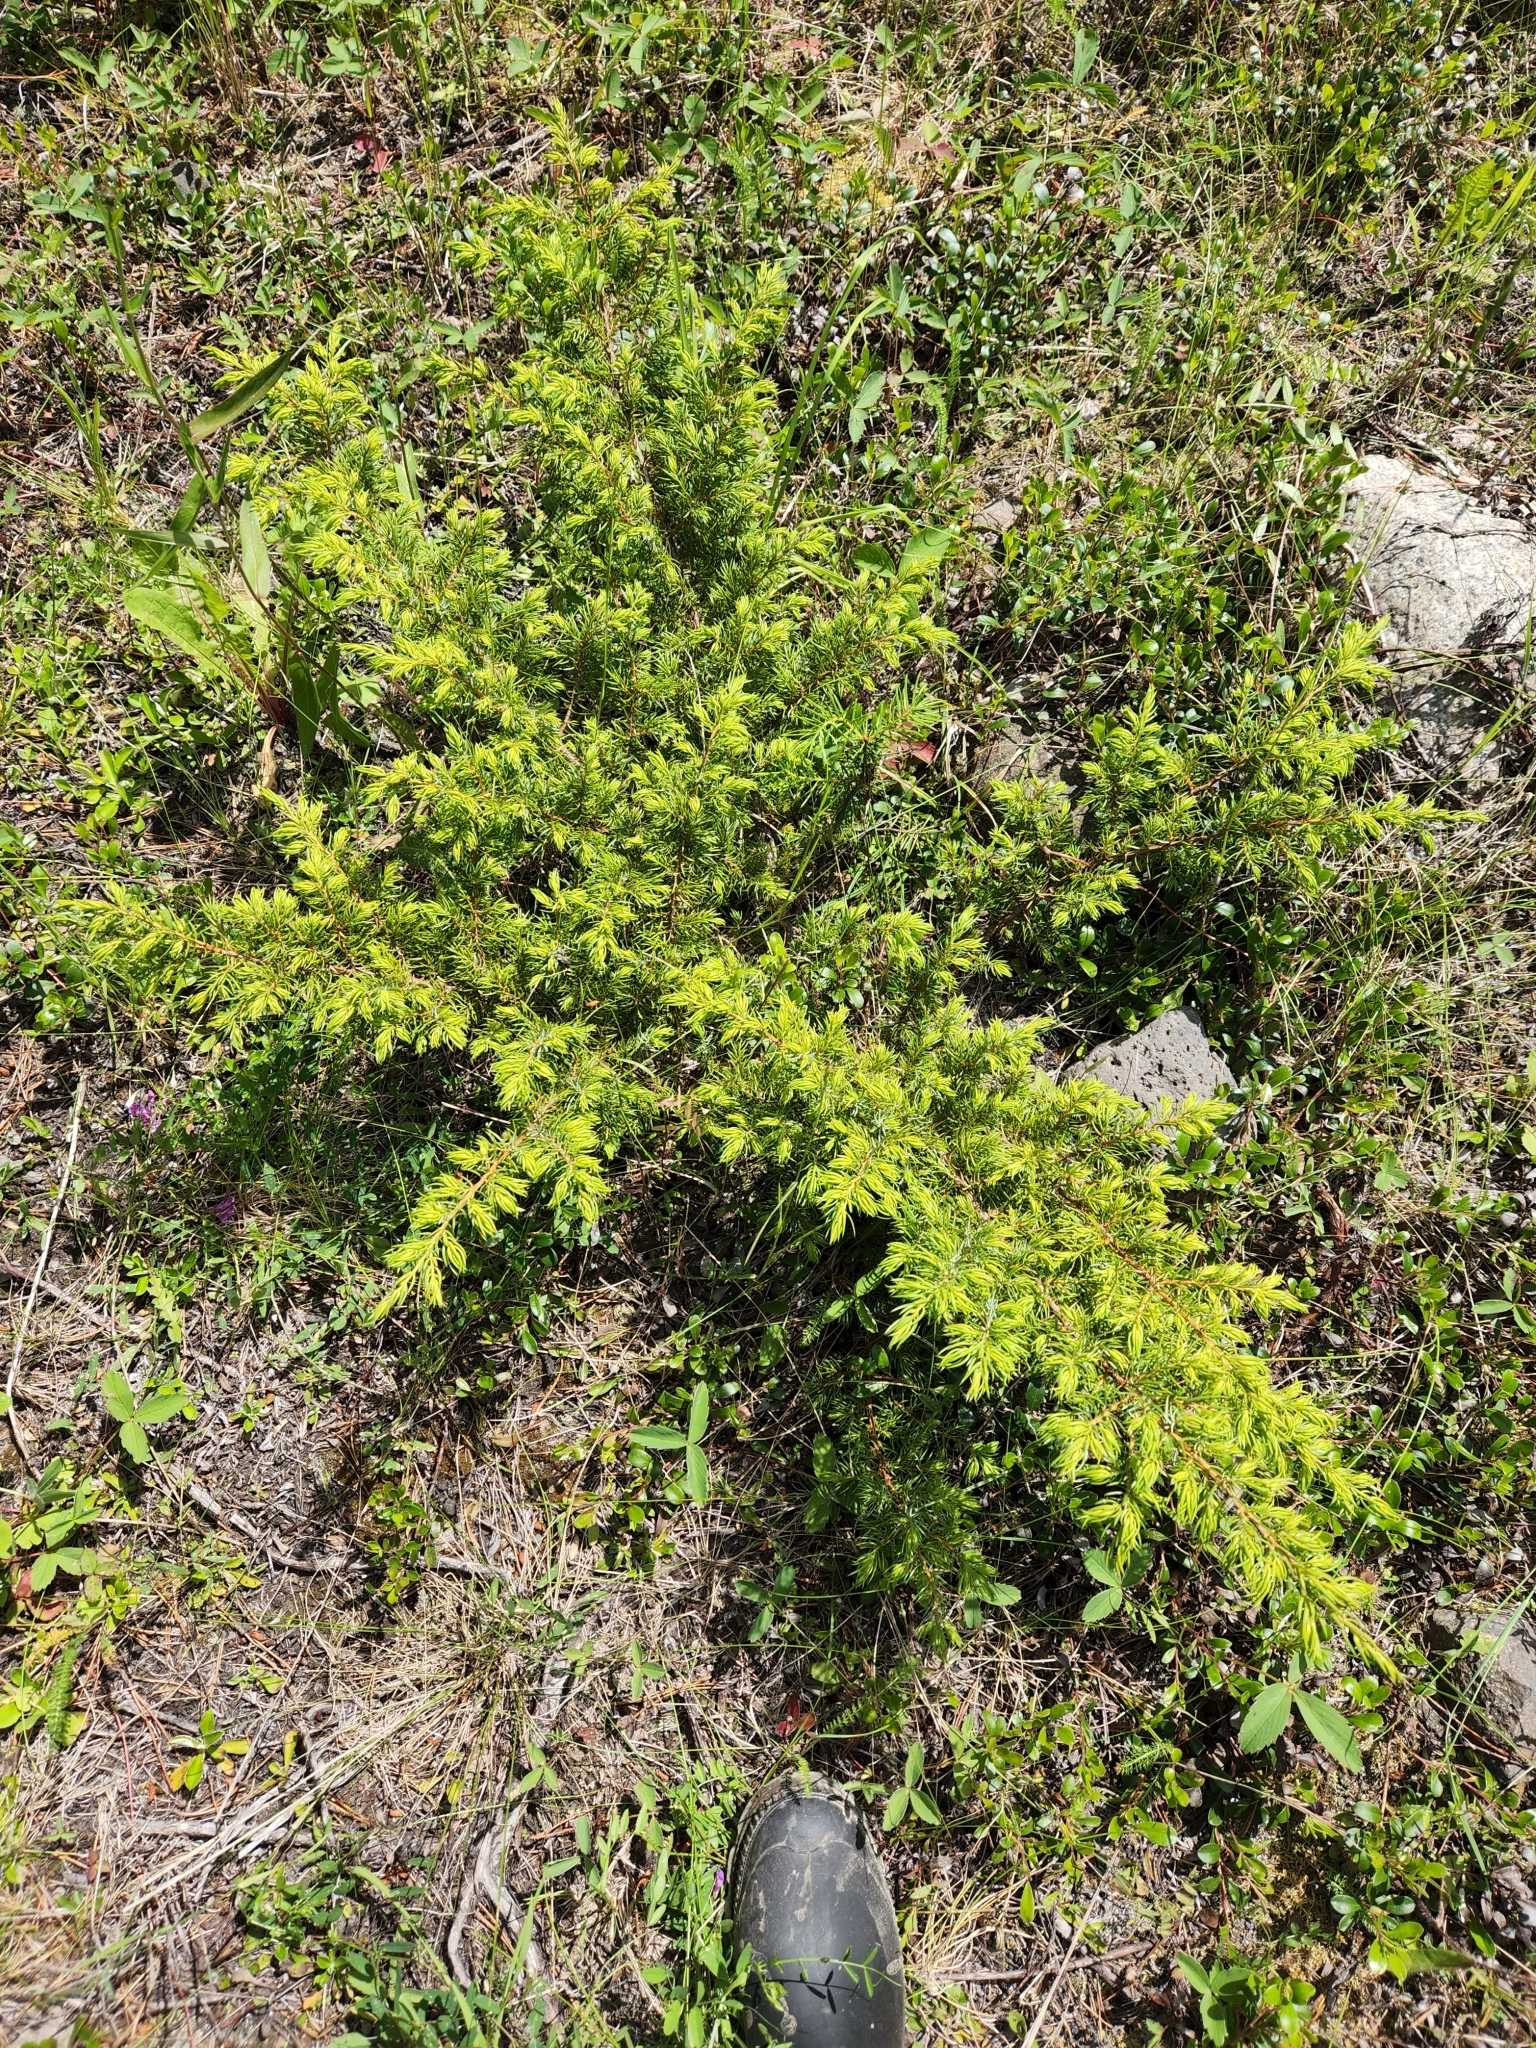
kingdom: Plantae
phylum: Tracheophyta
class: Pinopsida
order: Pinales
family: Cupressaceae
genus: Juniperus
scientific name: Juniperus communis
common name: Common juniper
